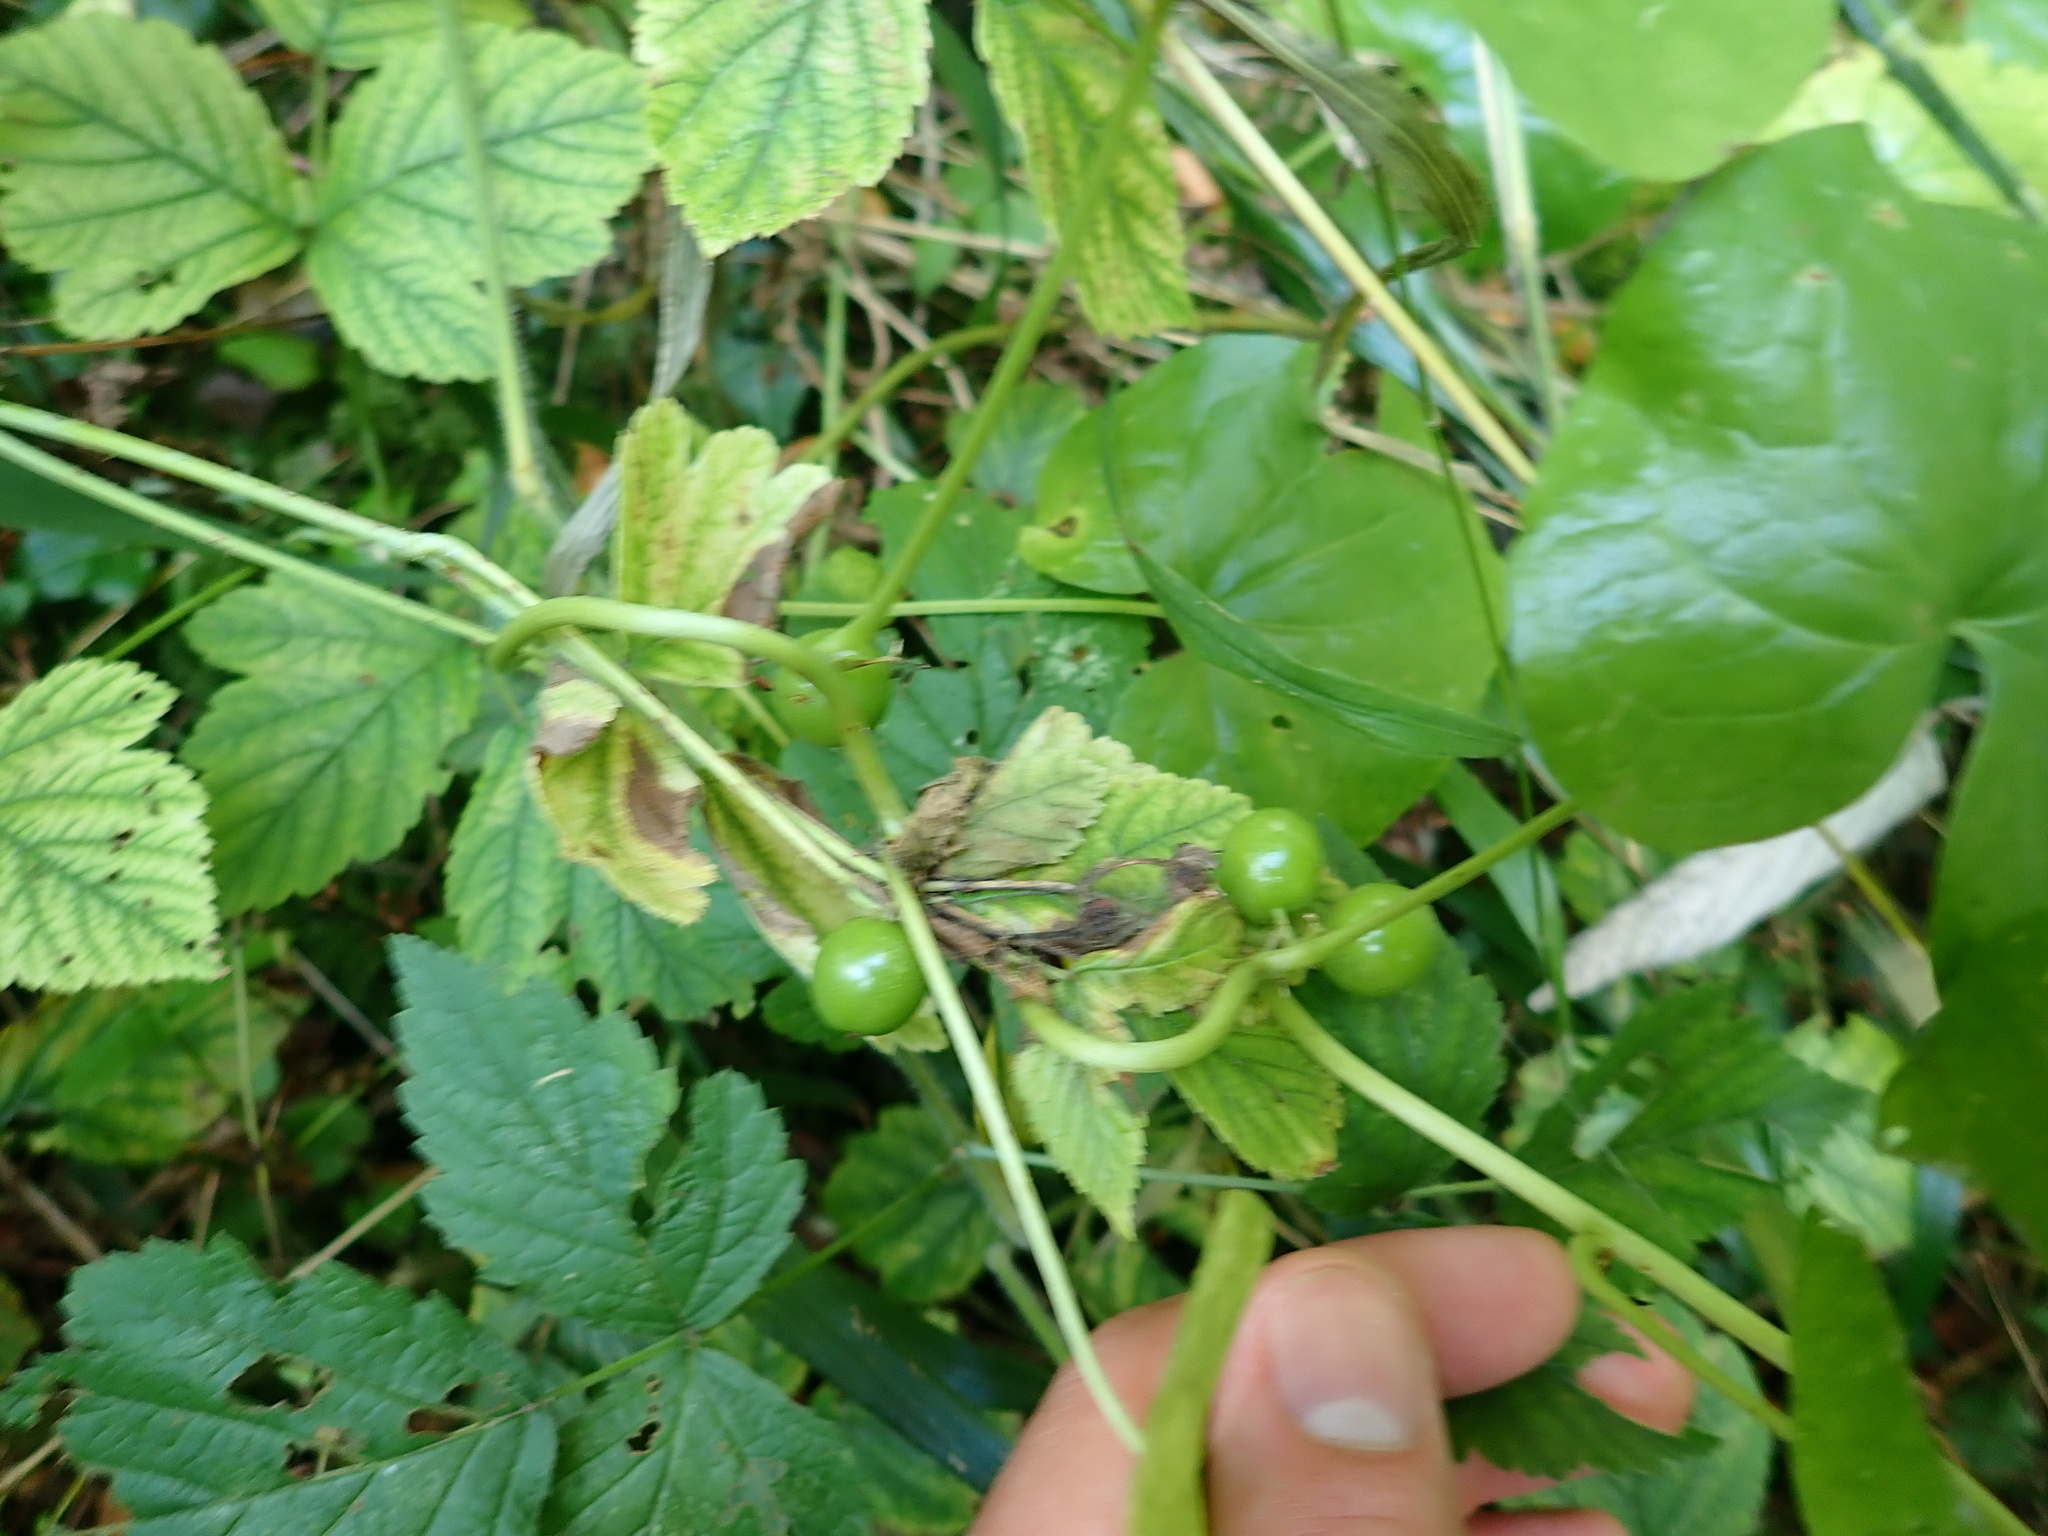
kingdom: Plantae
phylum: Tracheophyta
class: Liliopsida
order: Dioscoreales
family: Dioscoreaceae
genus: Dioscorea
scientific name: Dioscorea communis
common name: Black-bindweed
